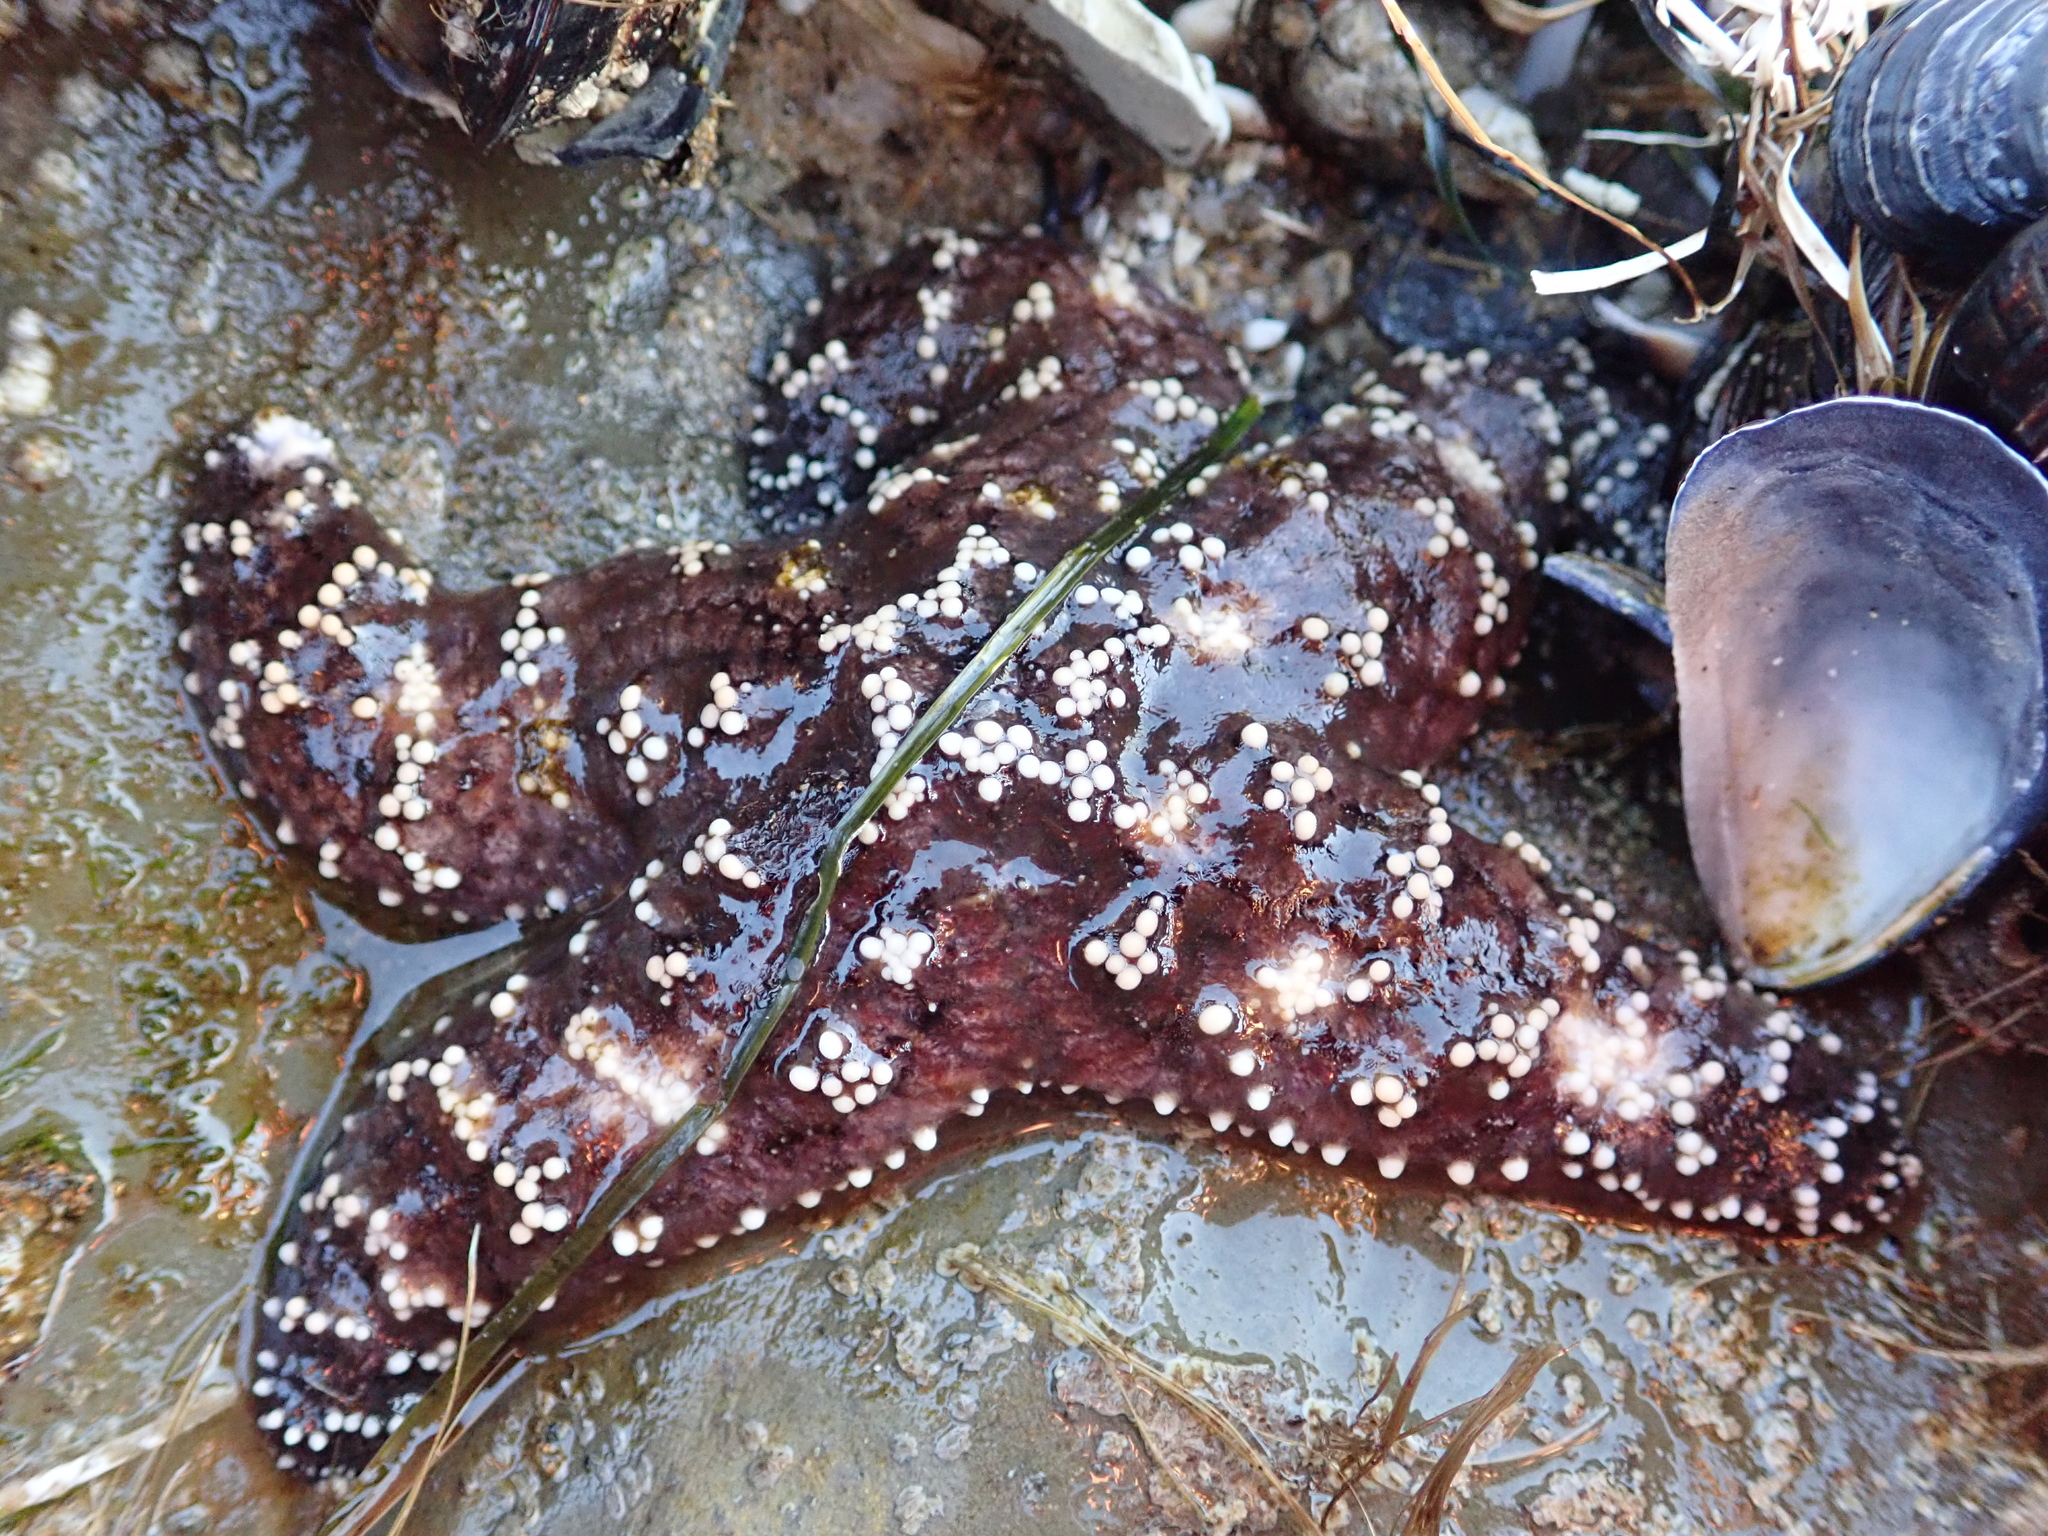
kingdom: Animalia
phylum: Echinodermata
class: Asteroidea
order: Forcipulatida
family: Asteriidae
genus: Pisaster
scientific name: Pisaster ochraceus
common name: Ochre stars
